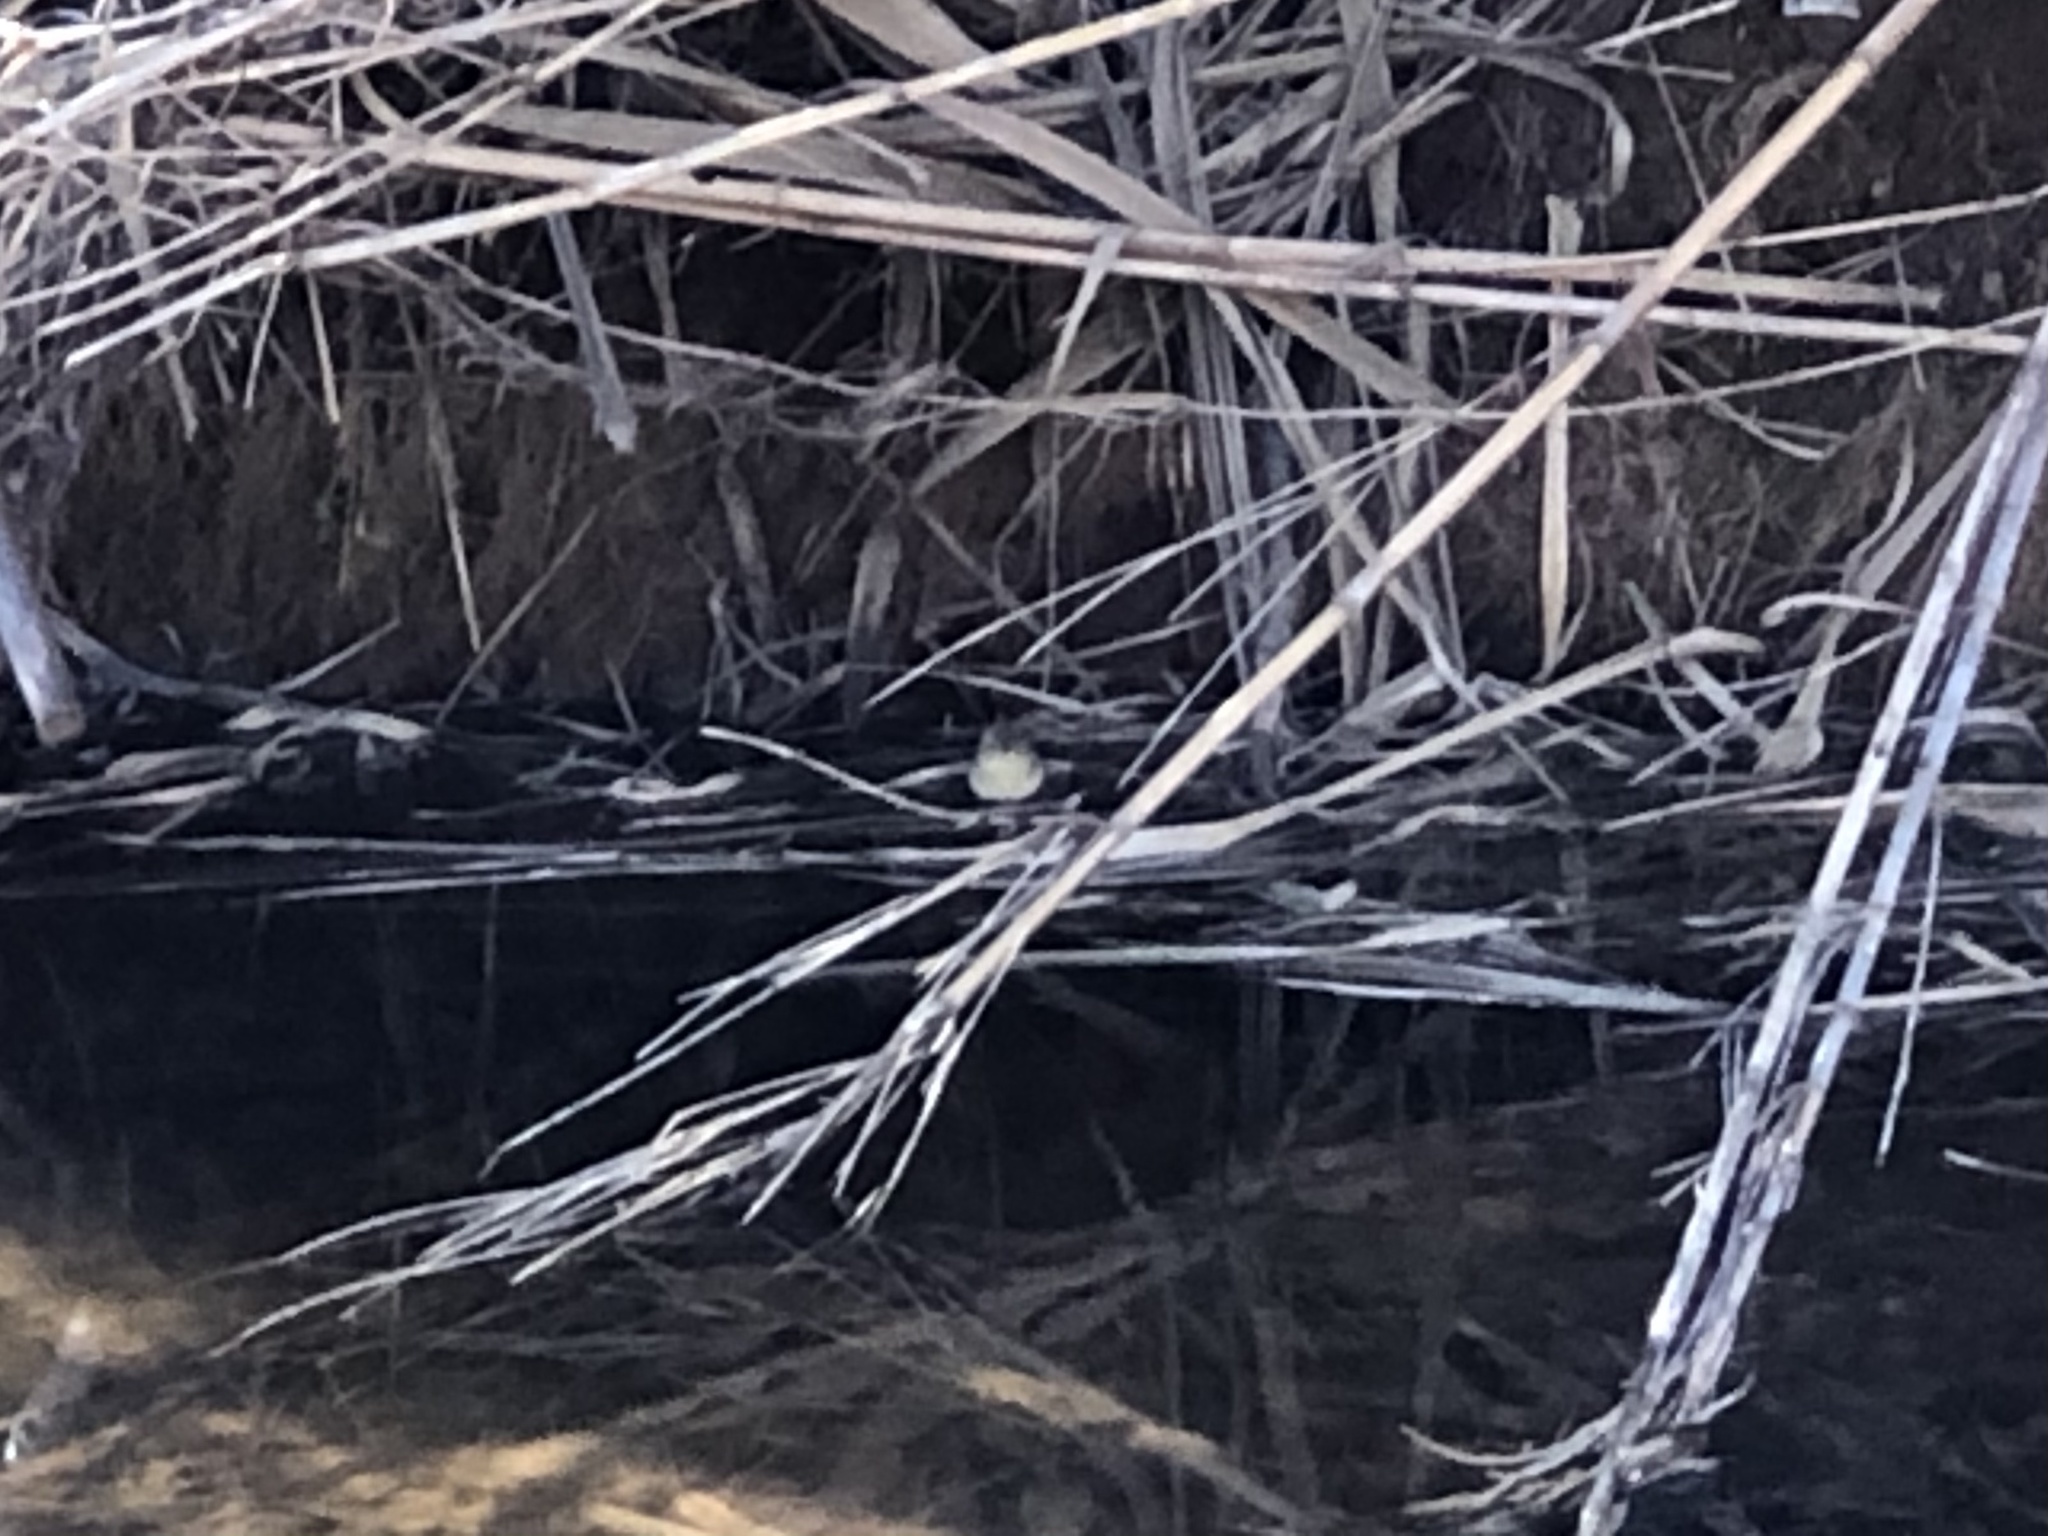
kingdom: Animalia
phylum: Chordata
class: Aves
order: Passeriformes
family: Phylloscopidae
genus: Phylloscopus
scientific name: Phylloscopus collybita
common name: Common chiffchaff
